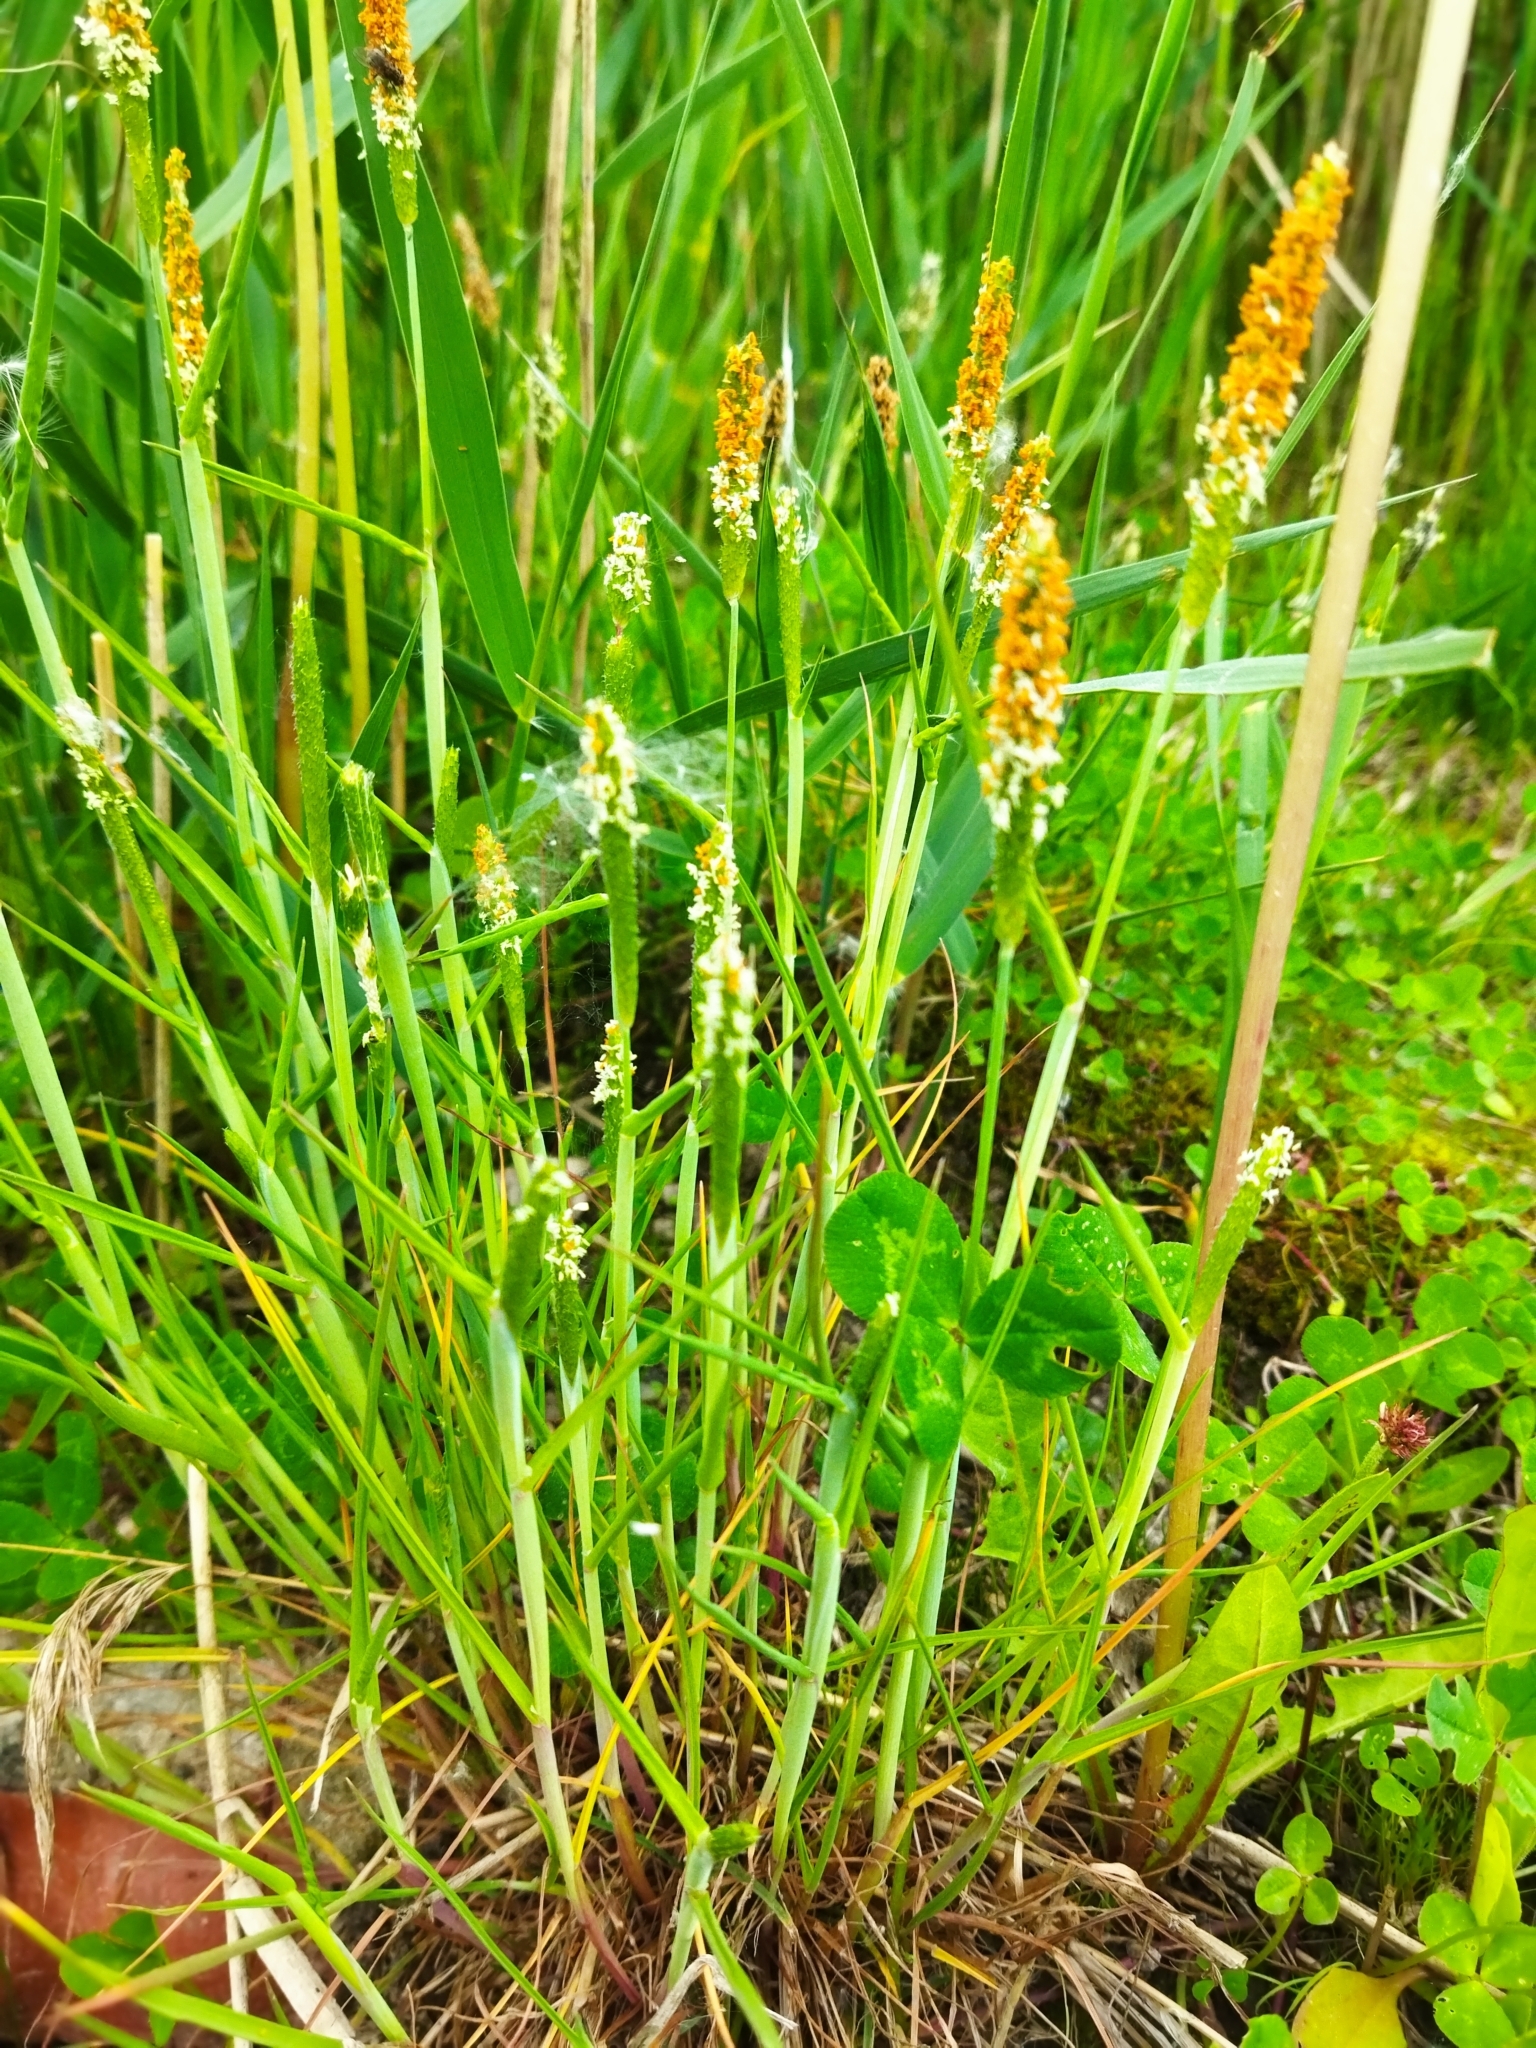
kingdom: Plantae
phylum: Tracheophyta
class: Liliopsida
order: Poales
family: Poaceae
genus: Alopecurus
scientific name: Alopecurus aequalis
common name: Orange foxtail
